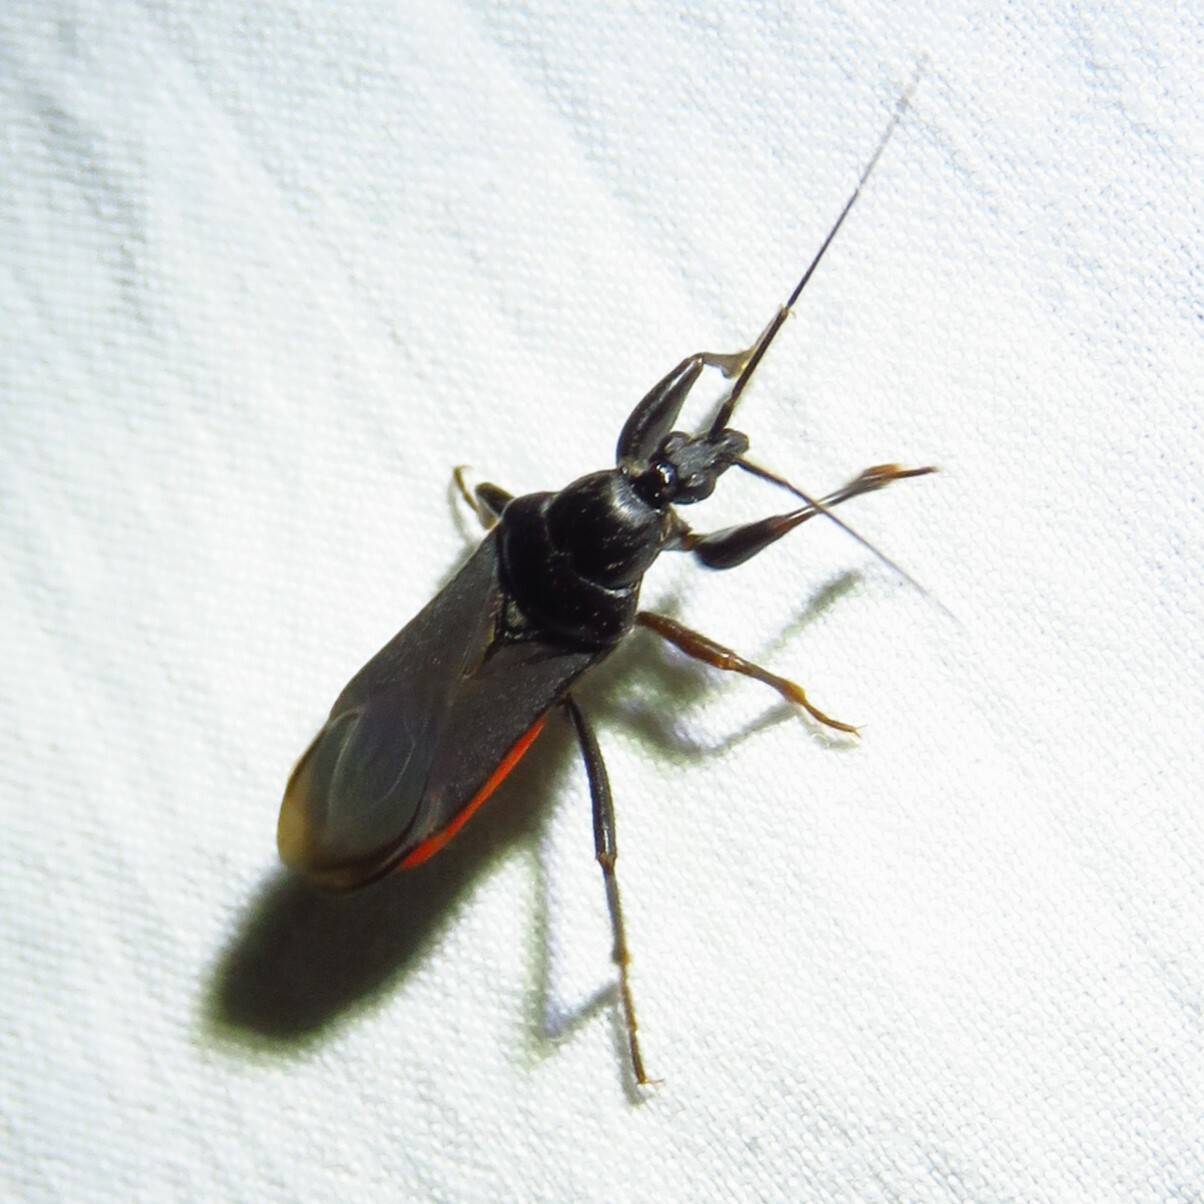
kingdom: Animalia
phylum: Arthropoda
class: Insecta
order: Hemiptera
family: Reduviidae
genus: Melanolestes
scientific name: Melanolestes picipes
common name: Assassin bug
